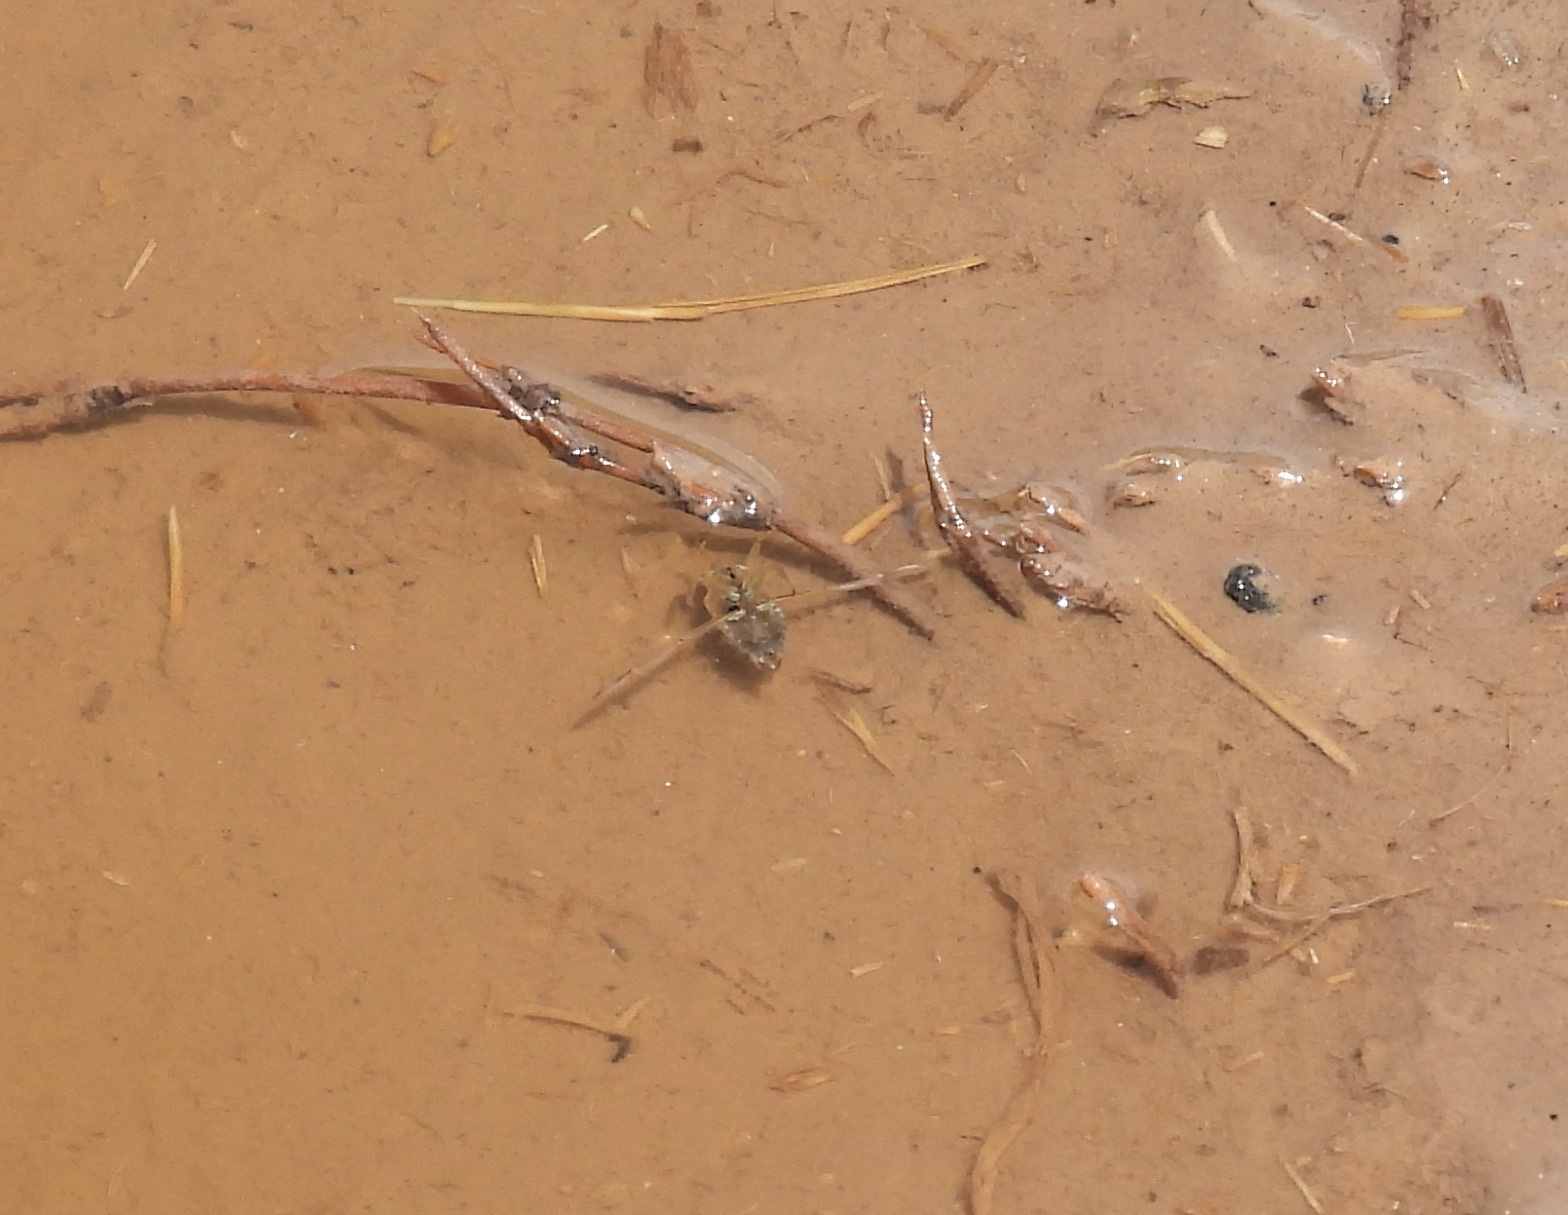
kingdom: Animalia
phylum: Arthropoda
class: Insecta
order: Hemiptera
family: Notonectidae
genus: Notonecta
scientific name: Notonecta
